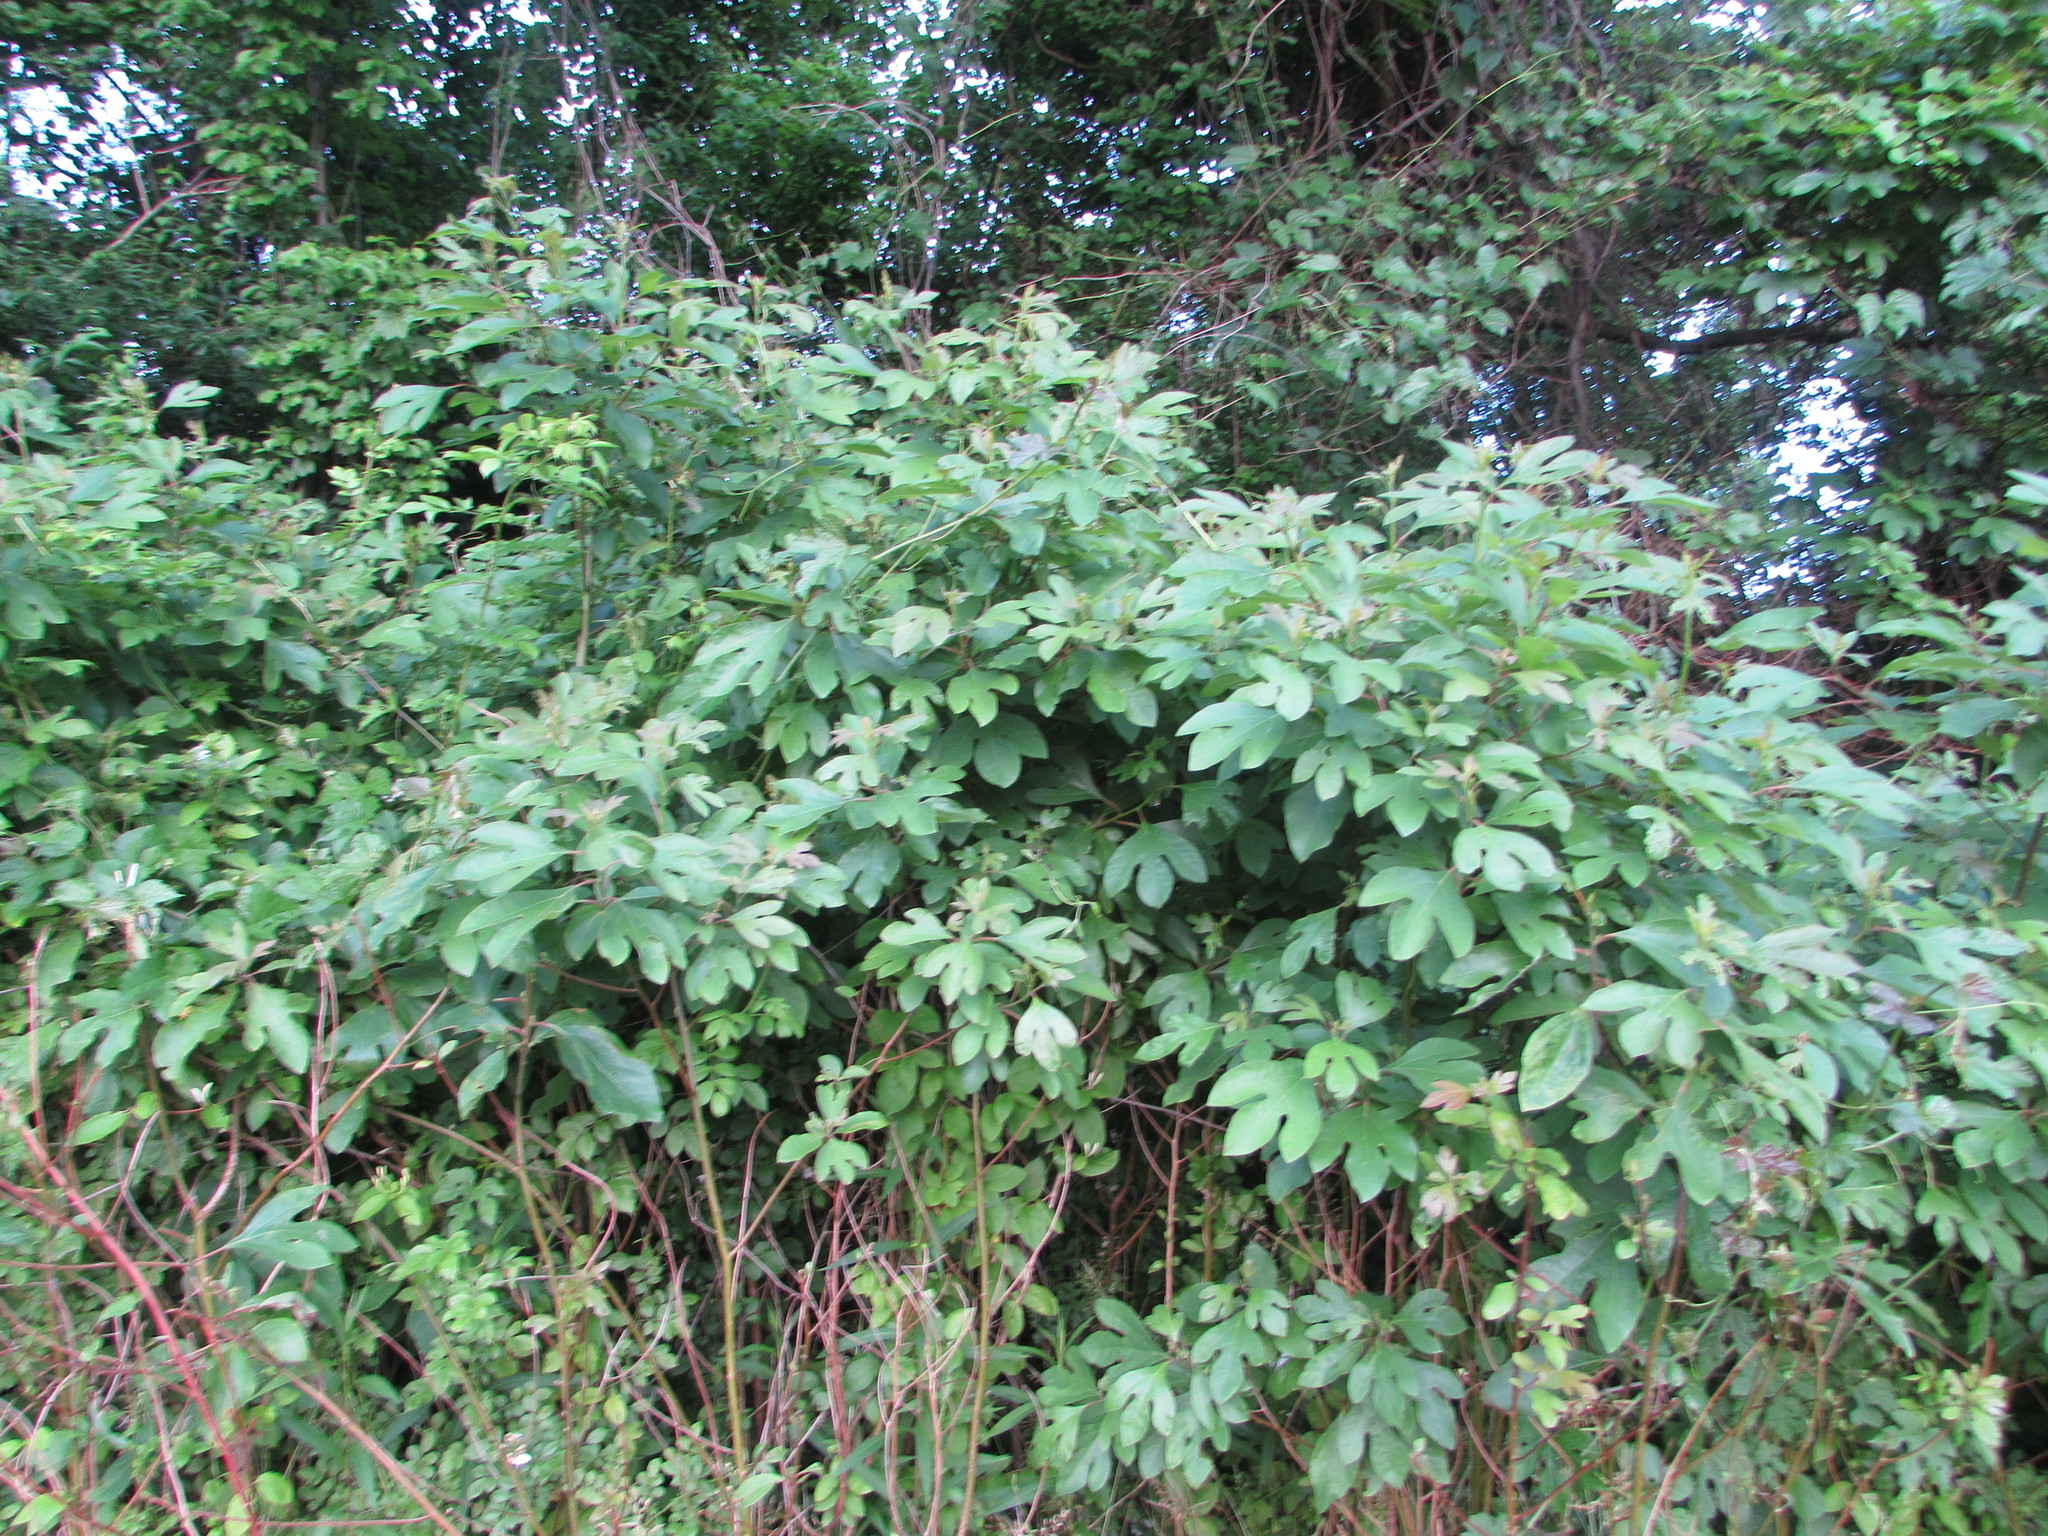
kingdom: Plantae
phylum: Tracheophyta
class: Magnoliopsida
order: Laurales
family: Lauraceae
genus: Sassafras
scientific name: Sassafras albidum
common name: Sassafras
